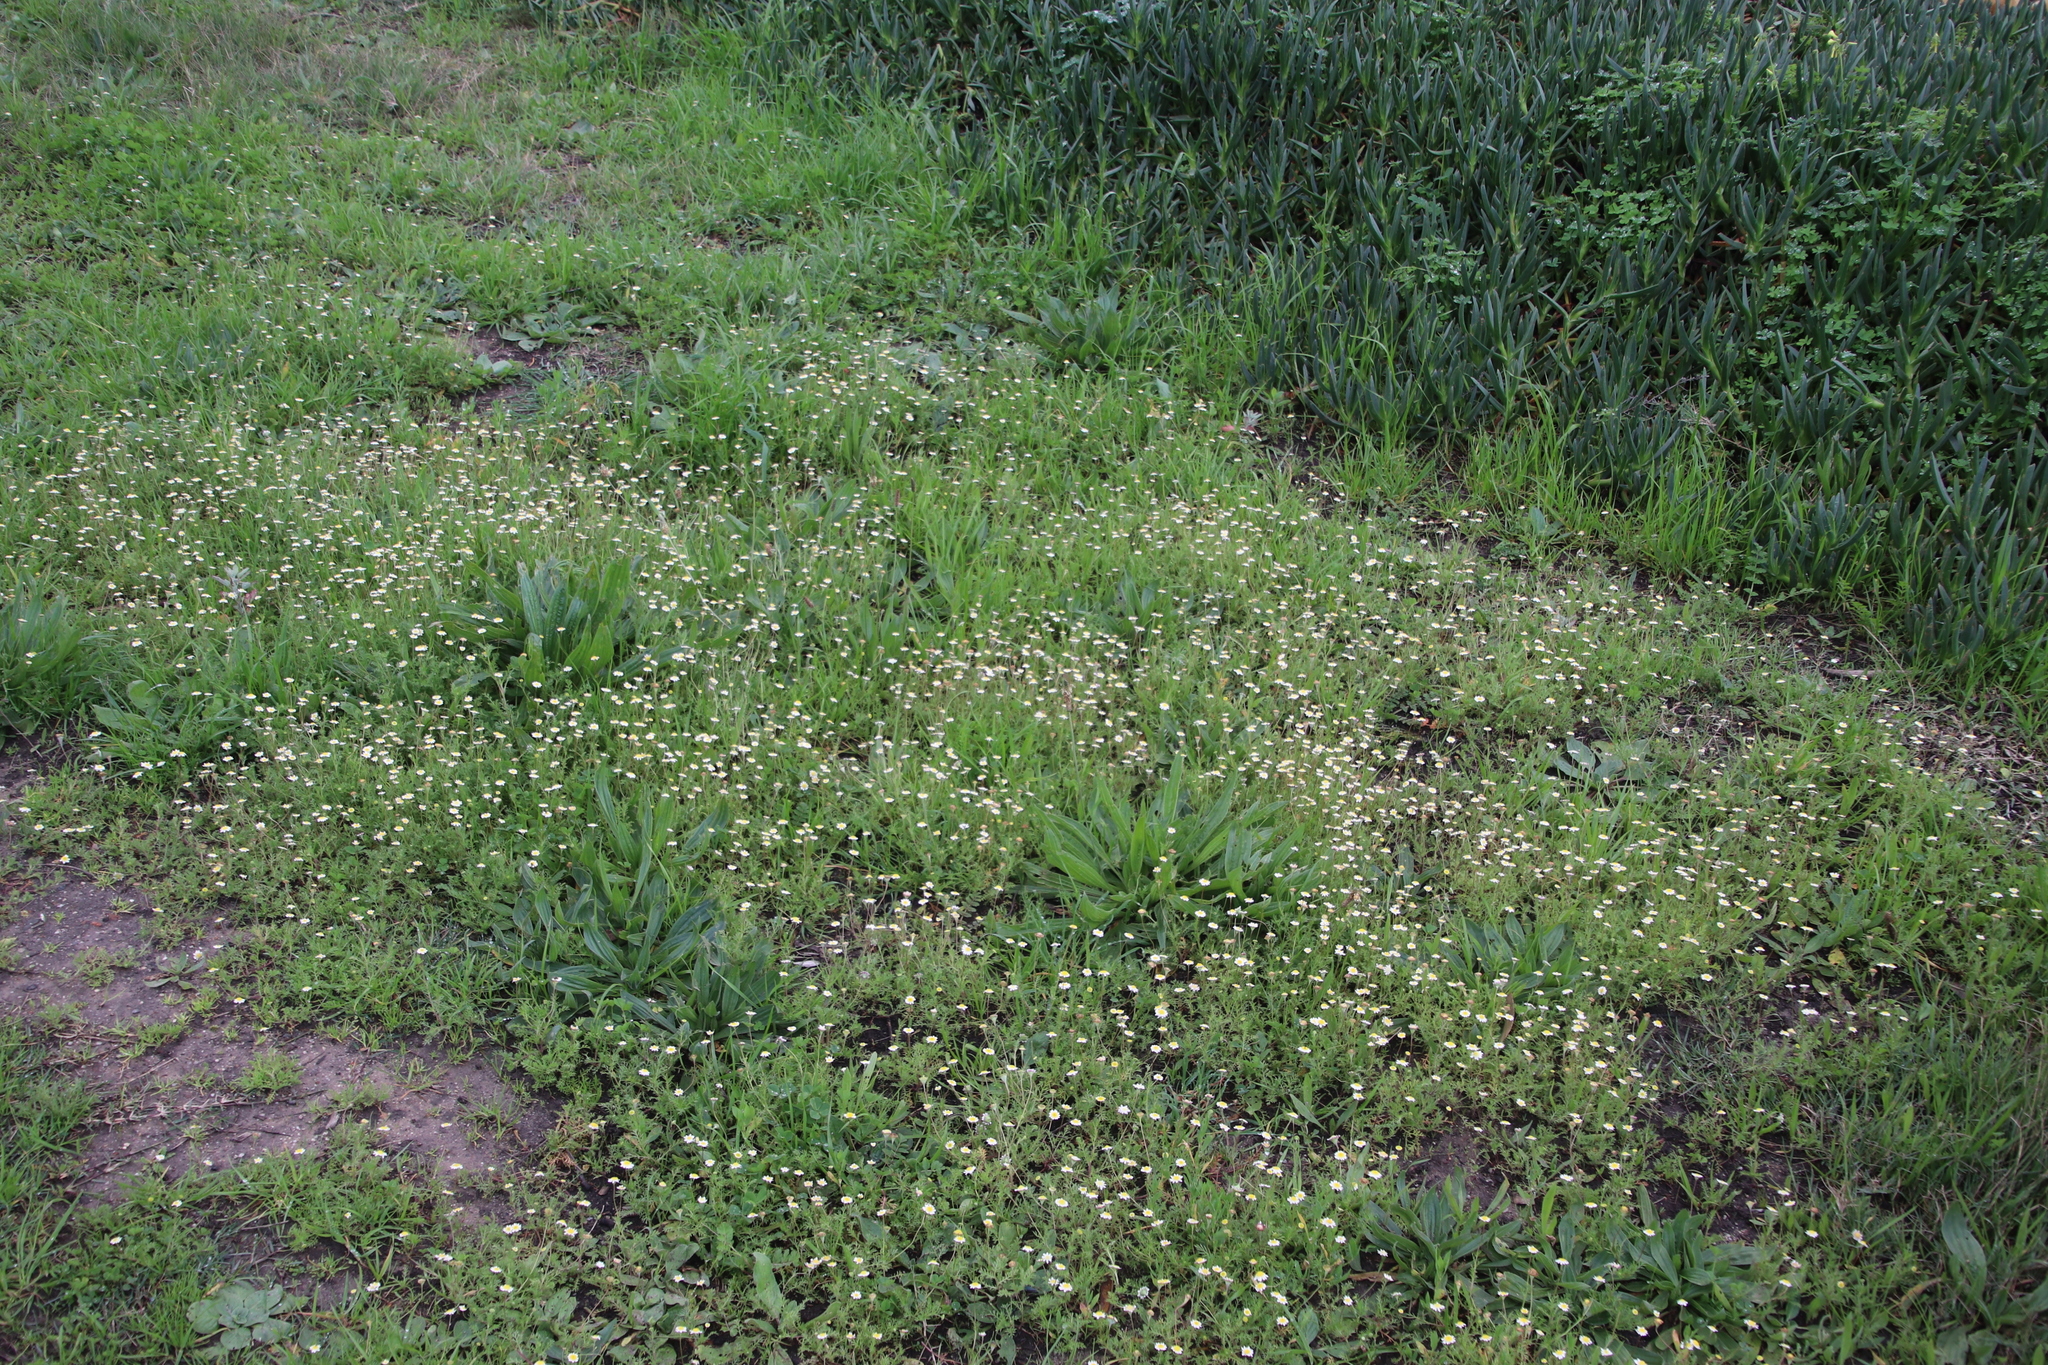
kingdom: Plantae
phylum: Tracheophyta
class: Magnoliopsida
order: Asterales
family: Asteraceae
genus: Cotula
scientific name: Cotula turbinata
